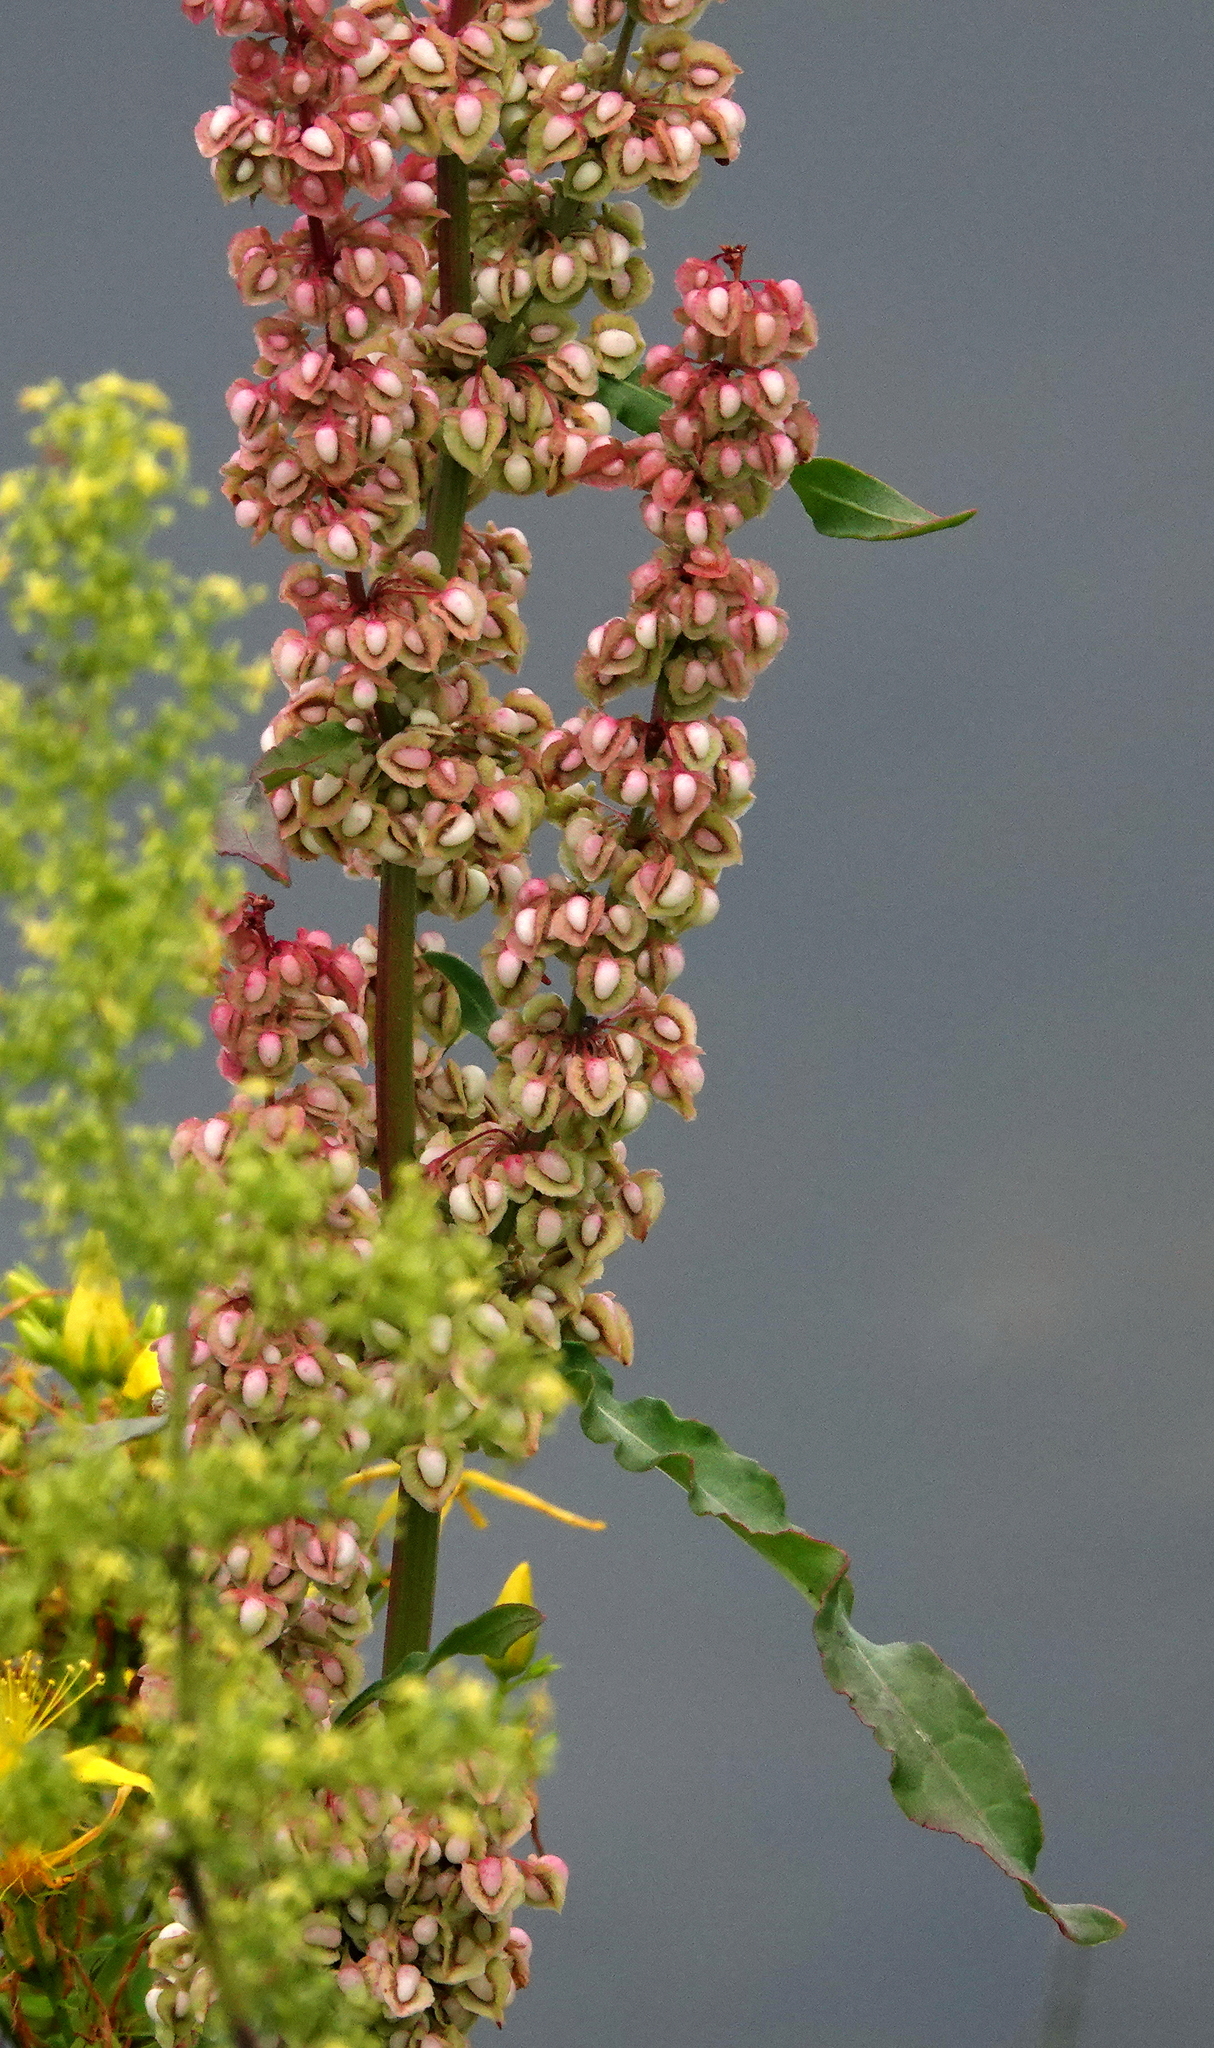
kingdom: Plantae
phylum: Tracheophyta
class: Magnoliopsida
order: Caryophyllales
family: Polygonaceae
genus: Rumex
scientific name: Rumex crispus
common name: Curled dock
